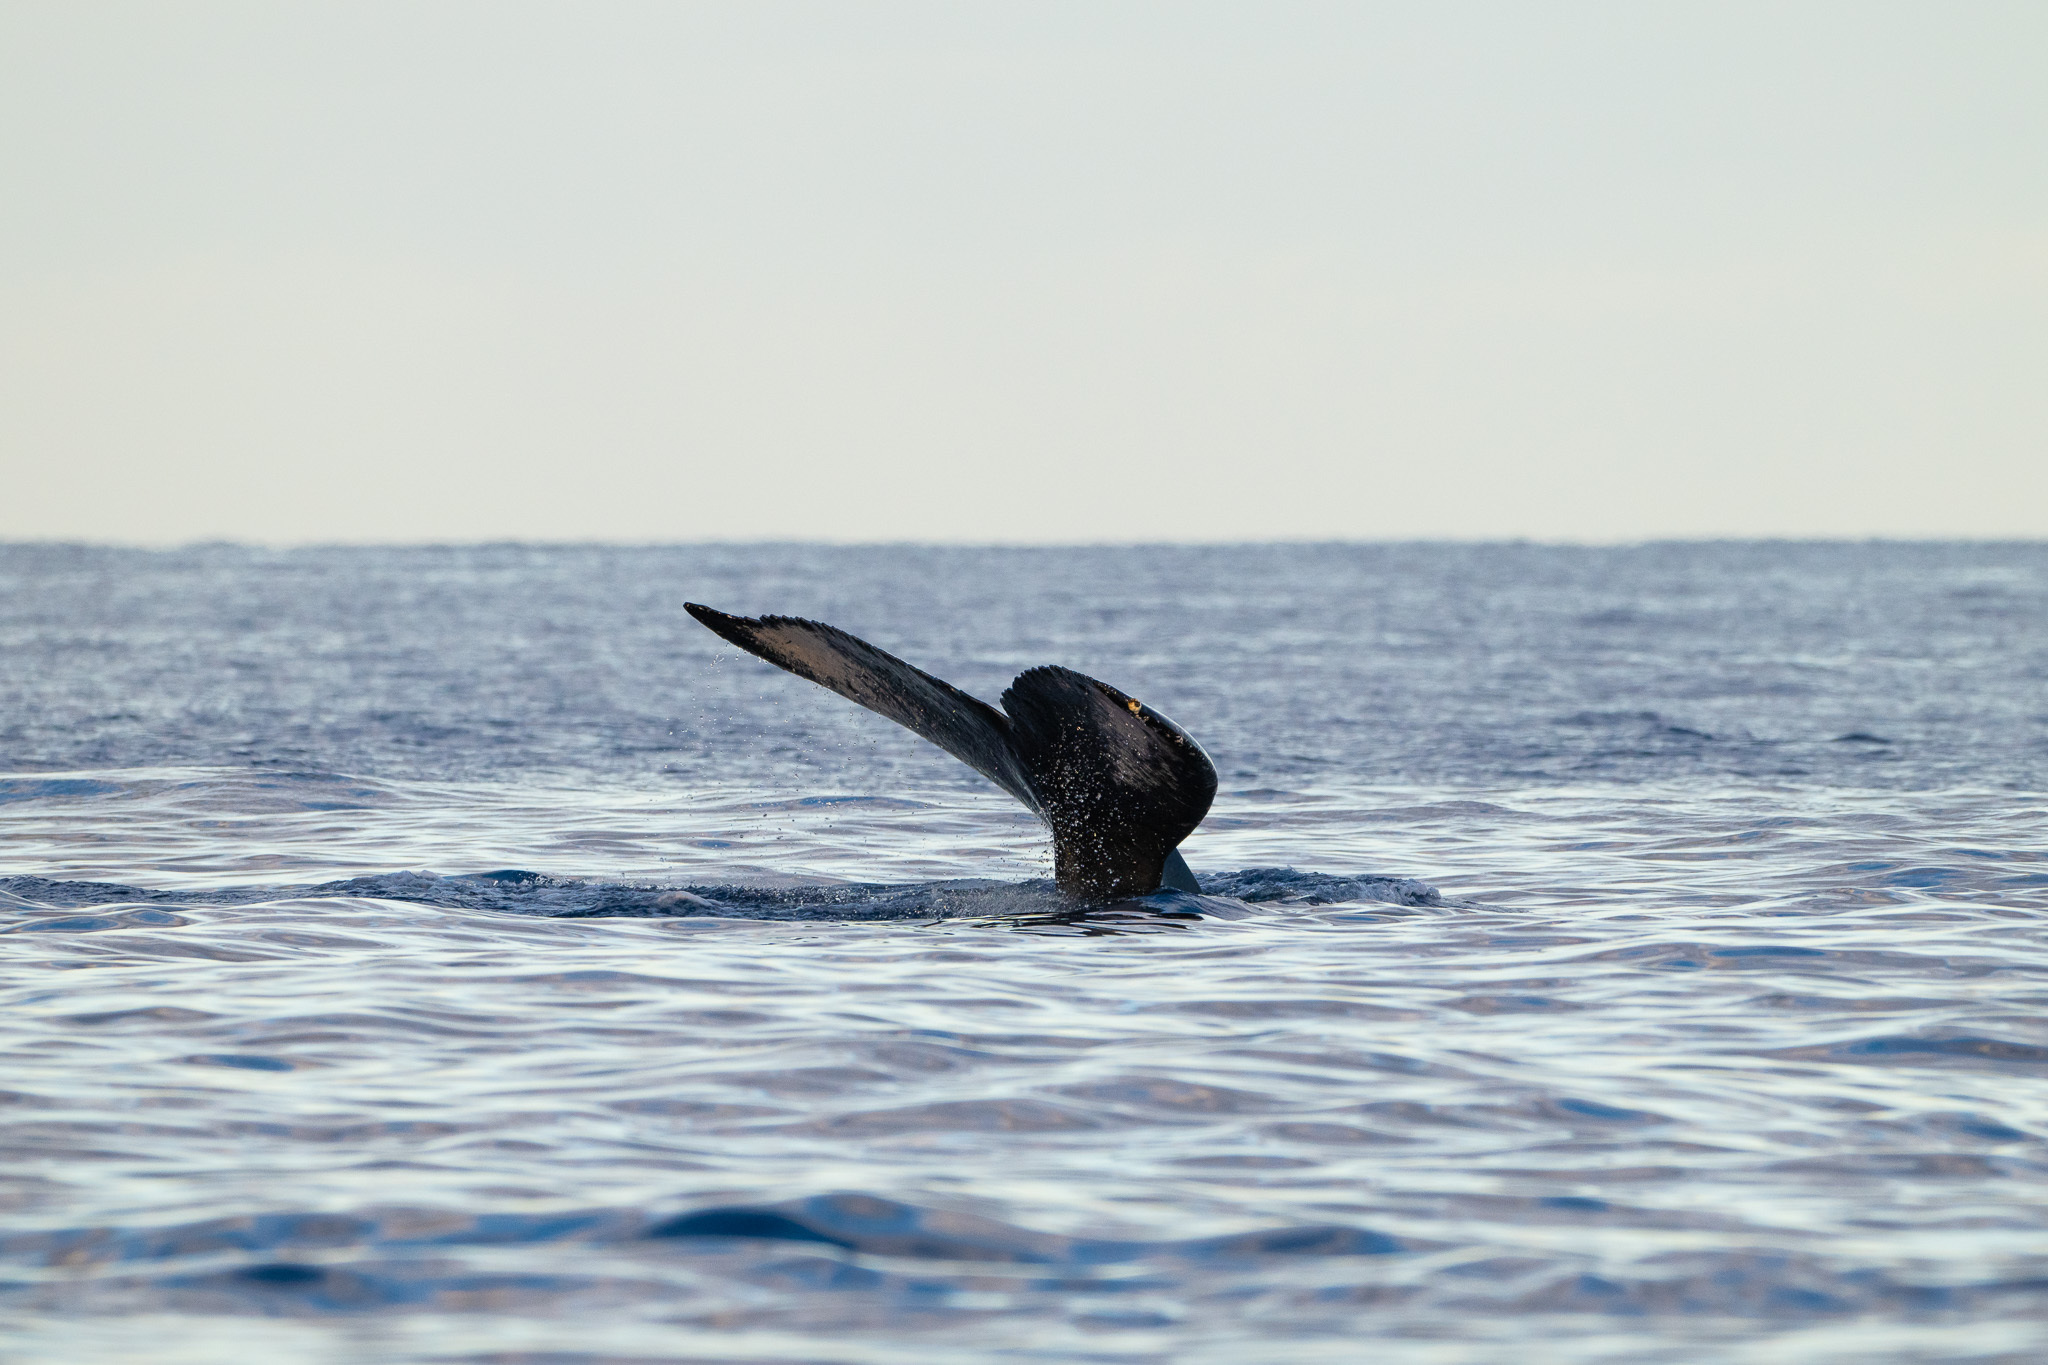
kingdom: Animalia
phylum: Chordata
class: Mammalia
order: Cetacea
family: Balaenopteridae
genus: Megaptera
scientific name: Megaptera novaeangliae
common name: Humpback whale
